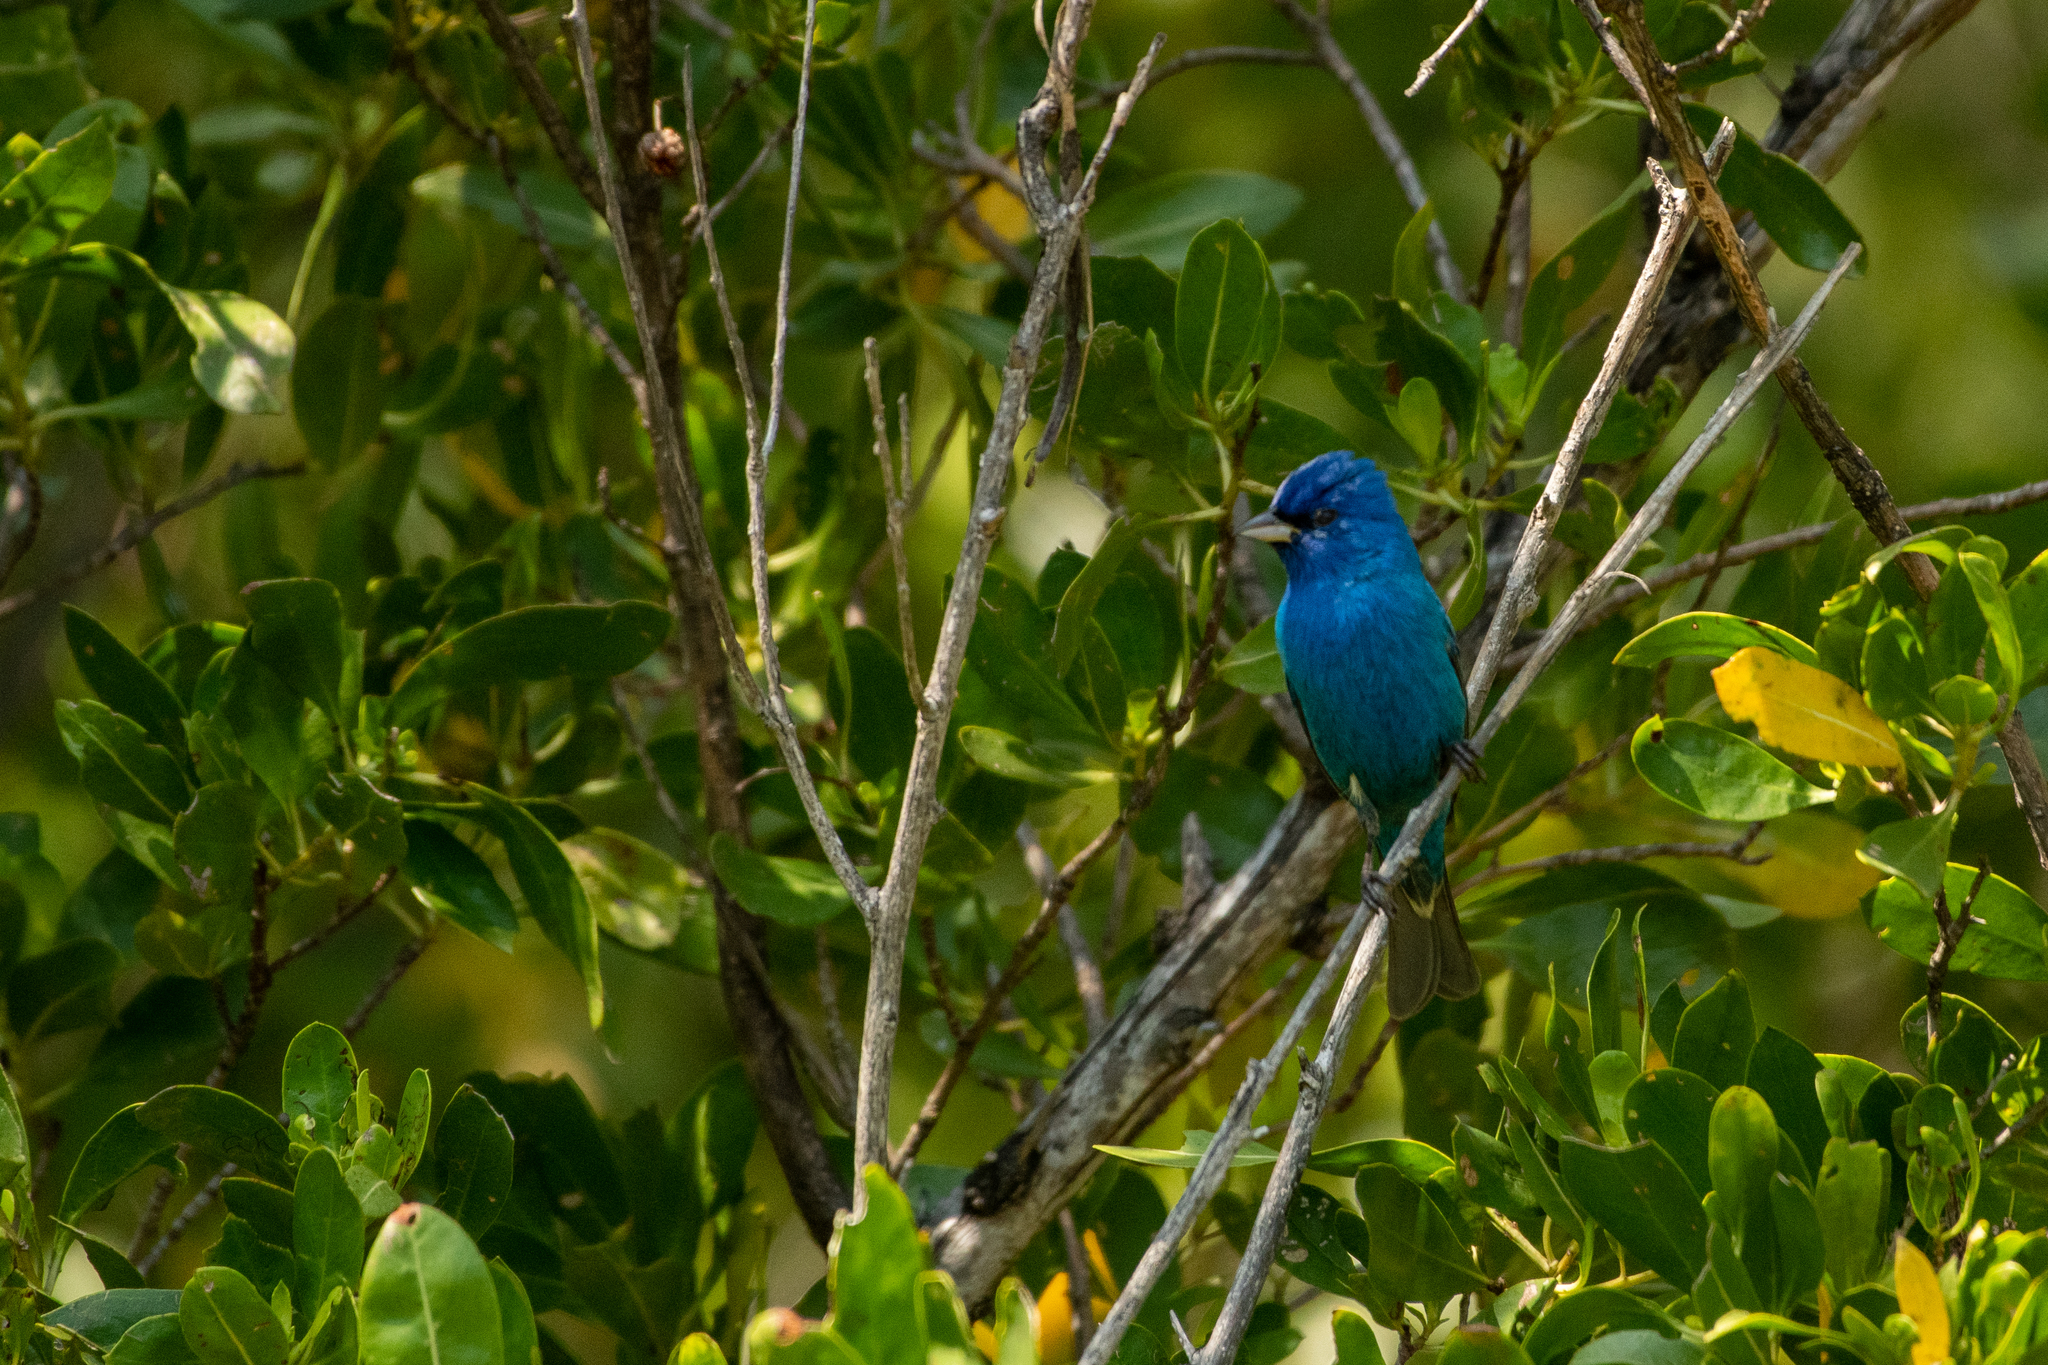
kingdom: Animalia
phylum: Chordata
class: Aves
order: Passeriformes
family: Cardinalidae
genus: Passerina
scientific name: Passerina cyanea
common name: Indigo bunting
